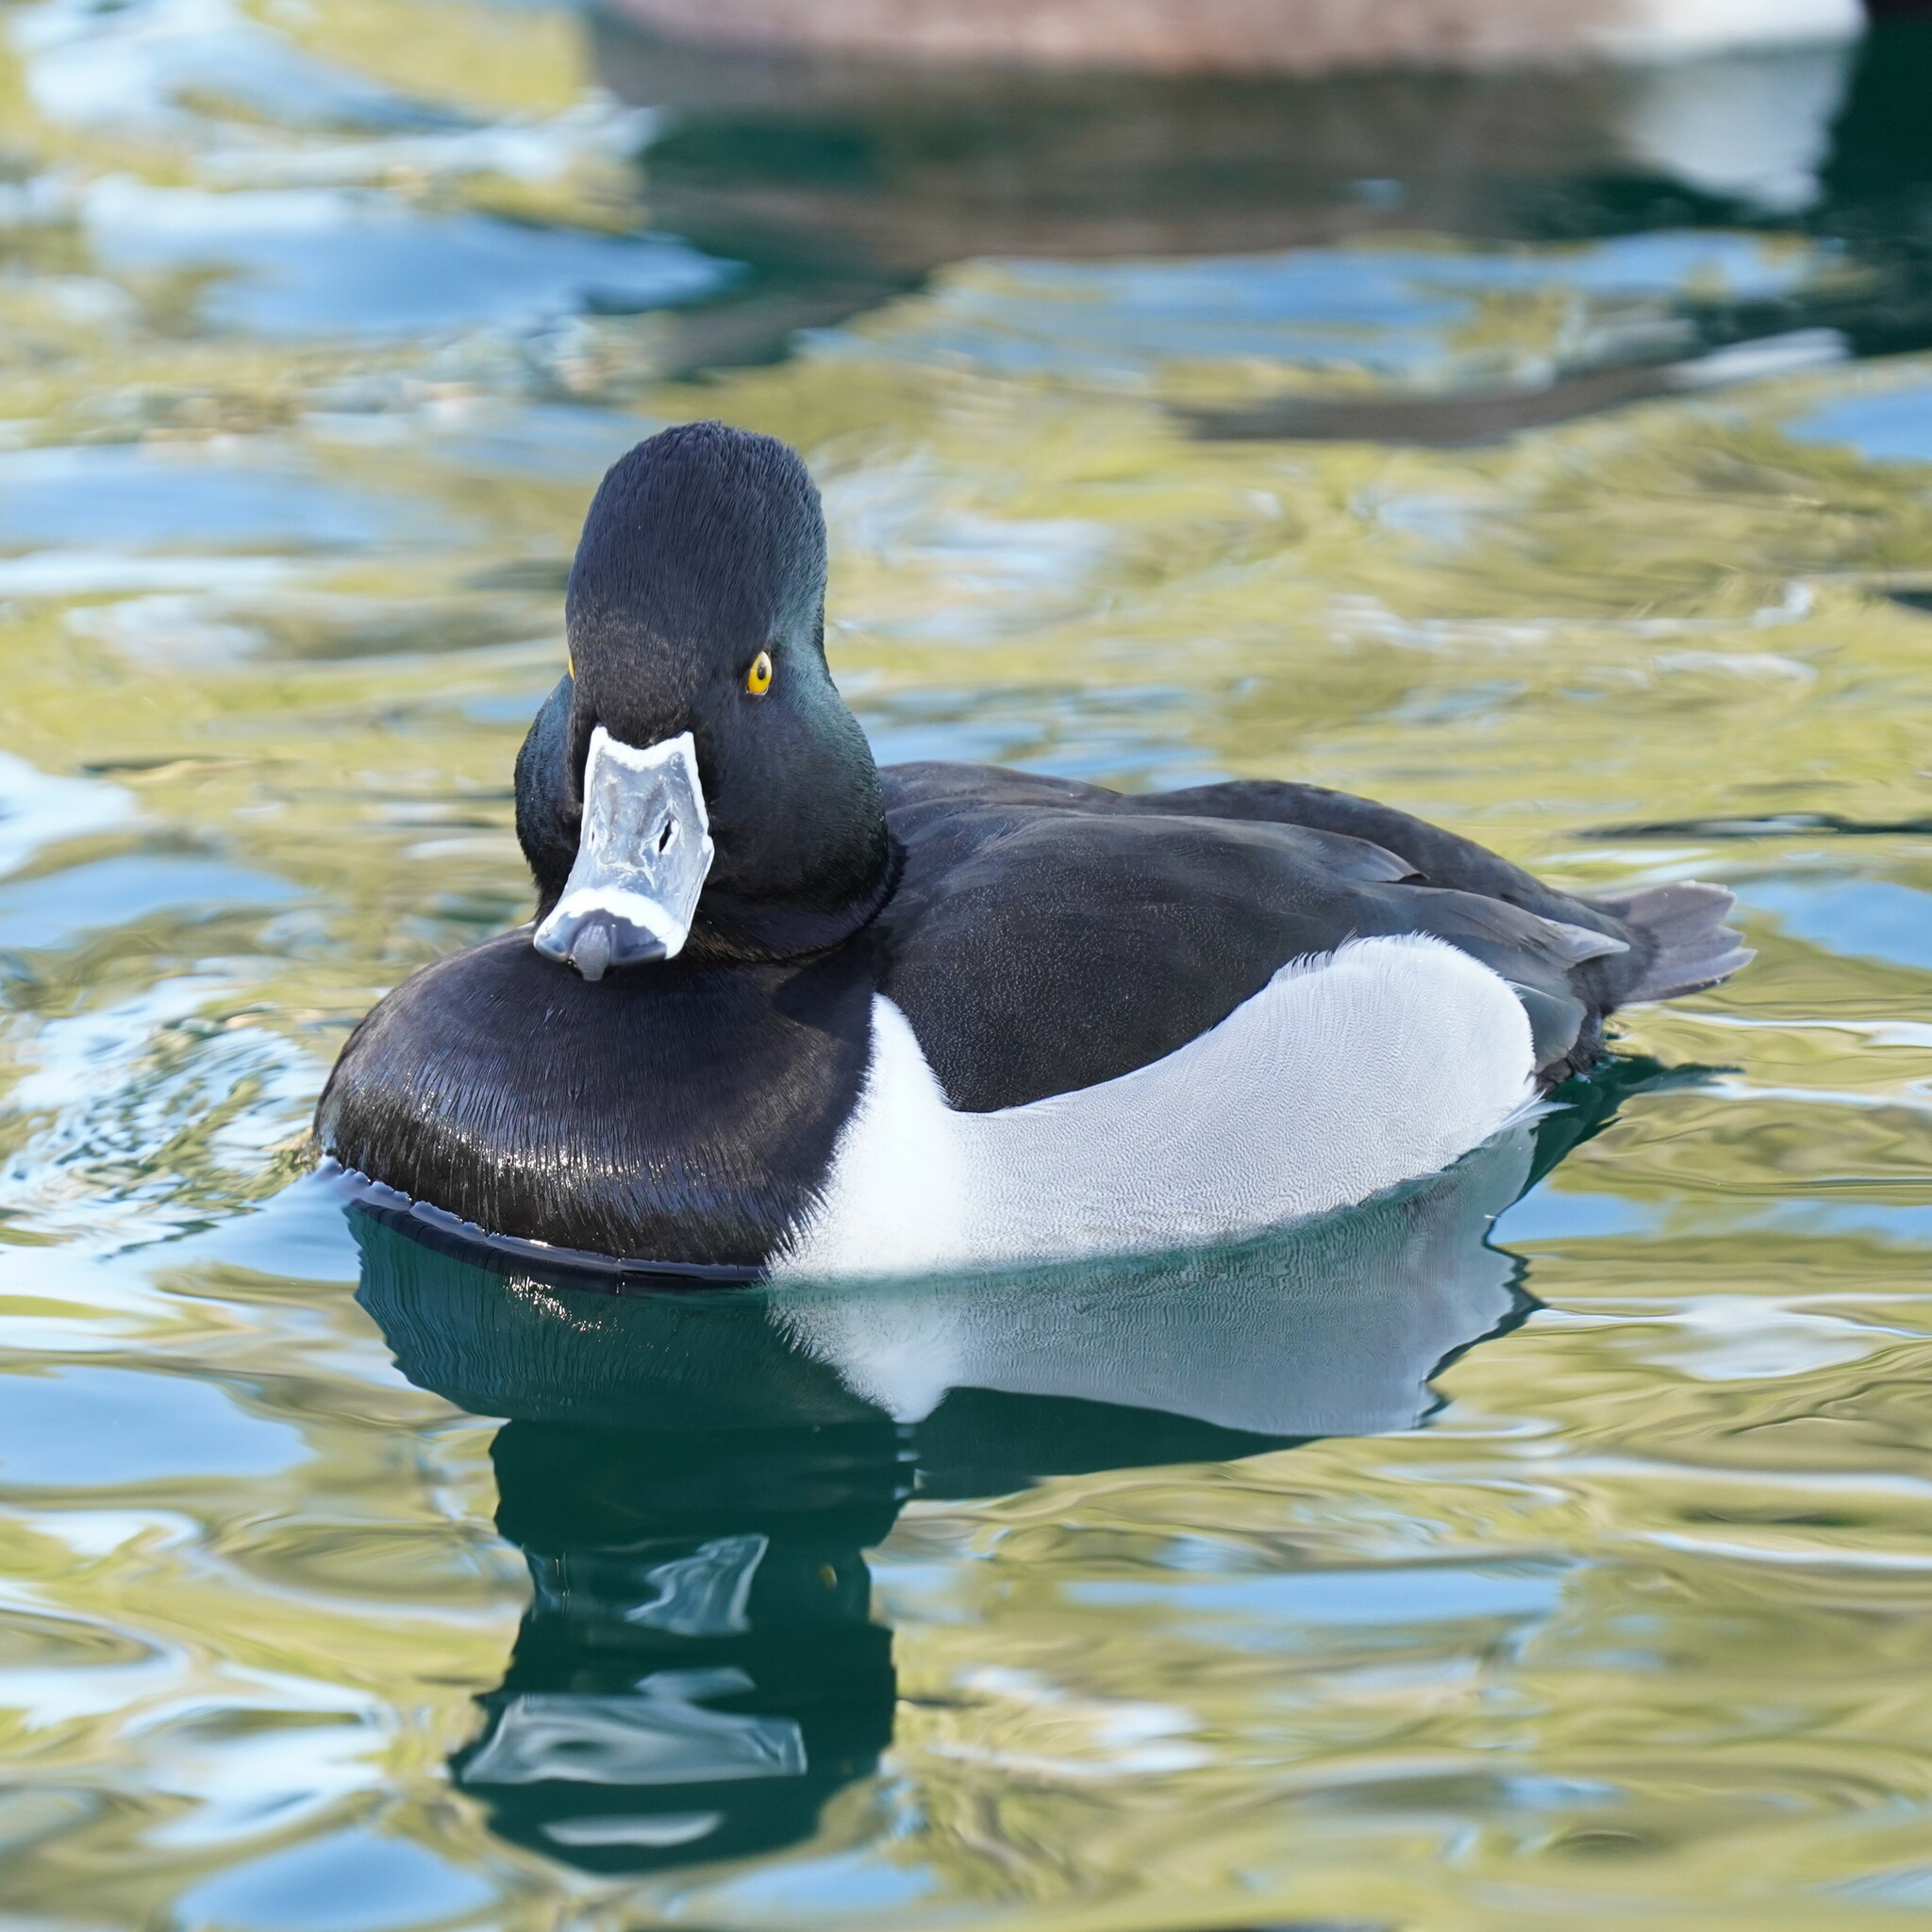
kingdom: Animalia
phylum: Chordata
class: Aves
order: Anseriformes
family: Anatidae
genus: Aythya
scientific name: Aythya collaris
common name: Ring-necked duck
